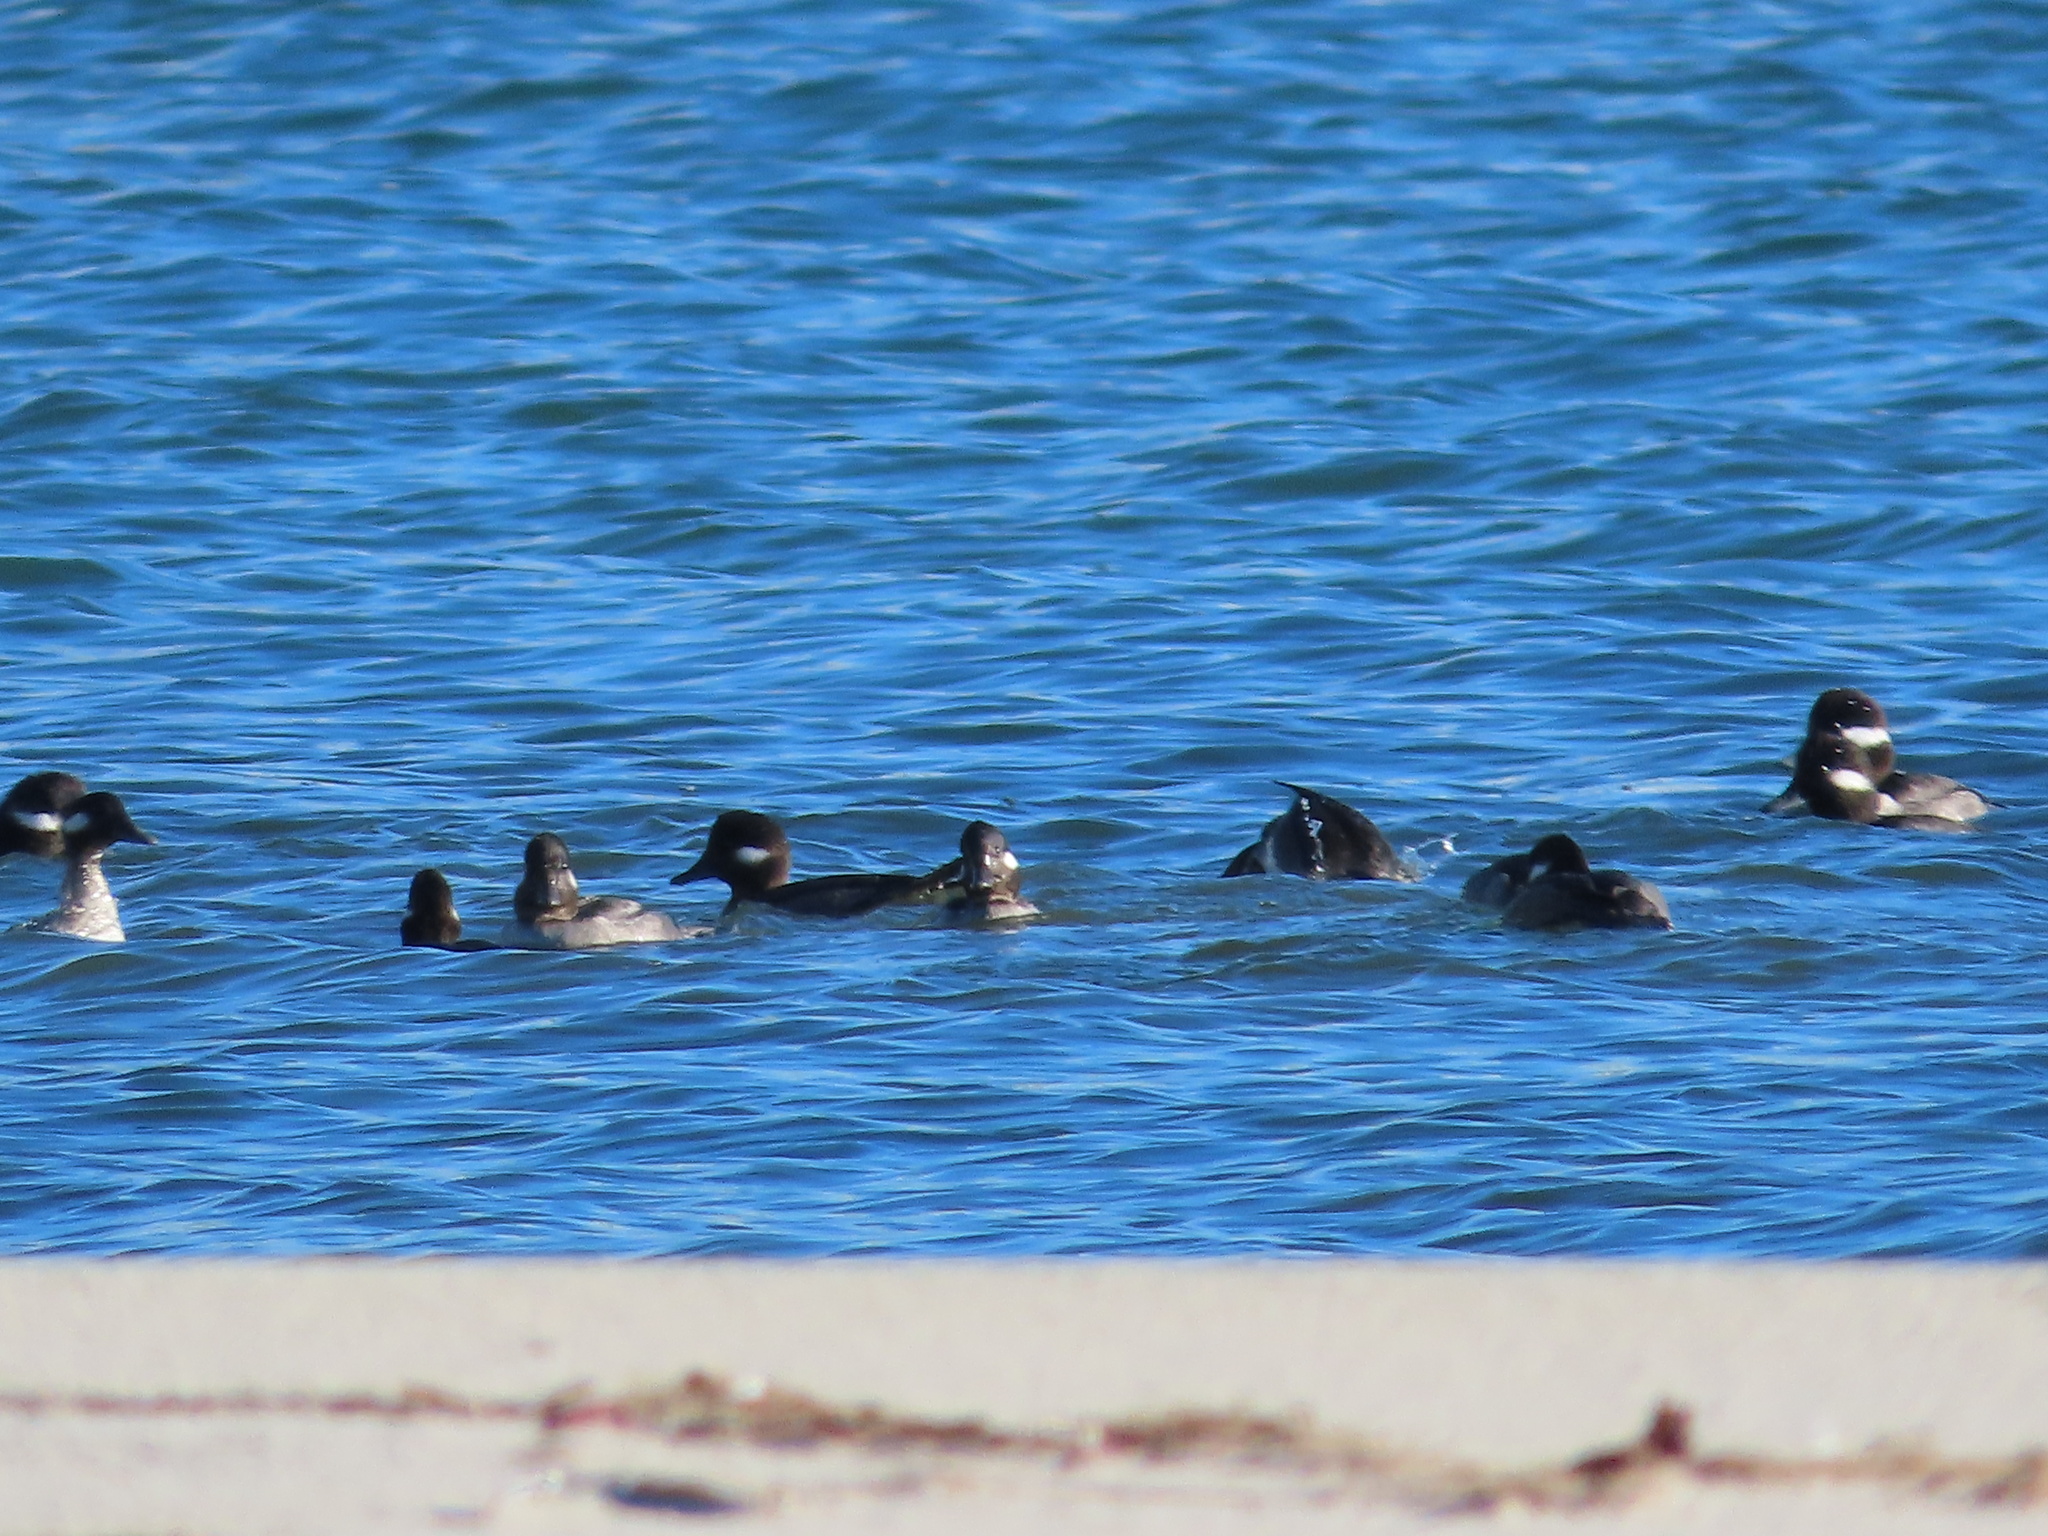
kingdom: Animalia
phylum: Chordata
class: Aves
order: Anseriformes
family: Anatidae
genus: Bucephala
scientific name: Bucephala albeola
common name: Bufflehead
